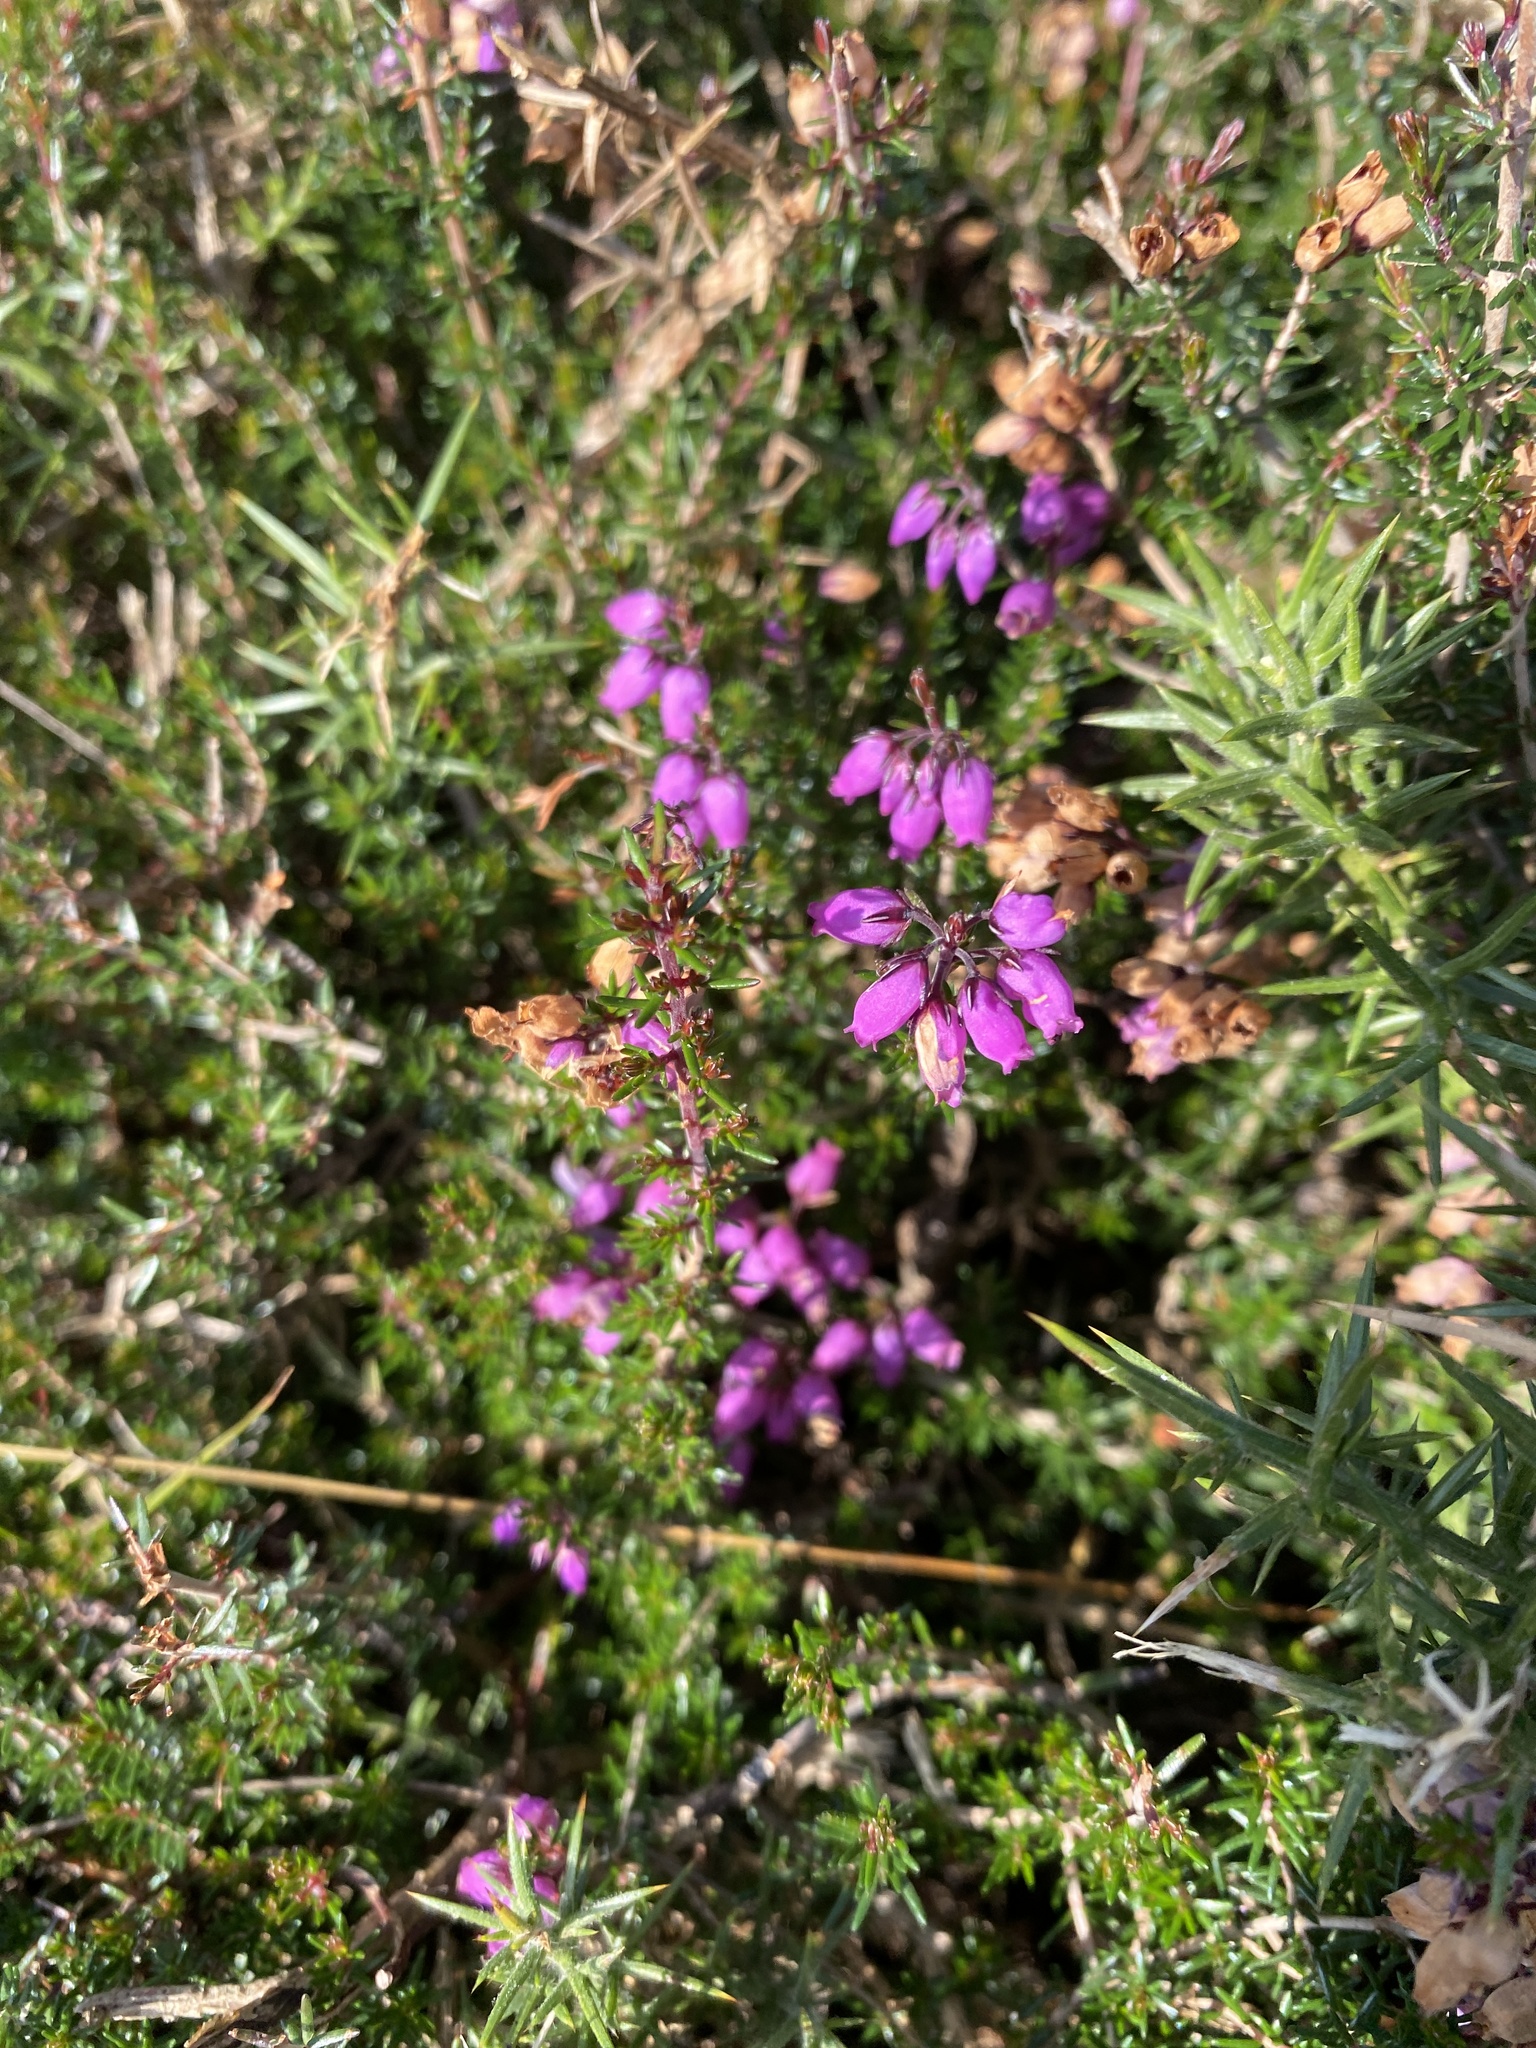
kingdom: Plantae
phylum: Tracheophyta
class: Magnoliopsida
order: Ericales
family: Ericaceae
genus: Erica
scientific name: Erica cinerea
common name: Bell heather
